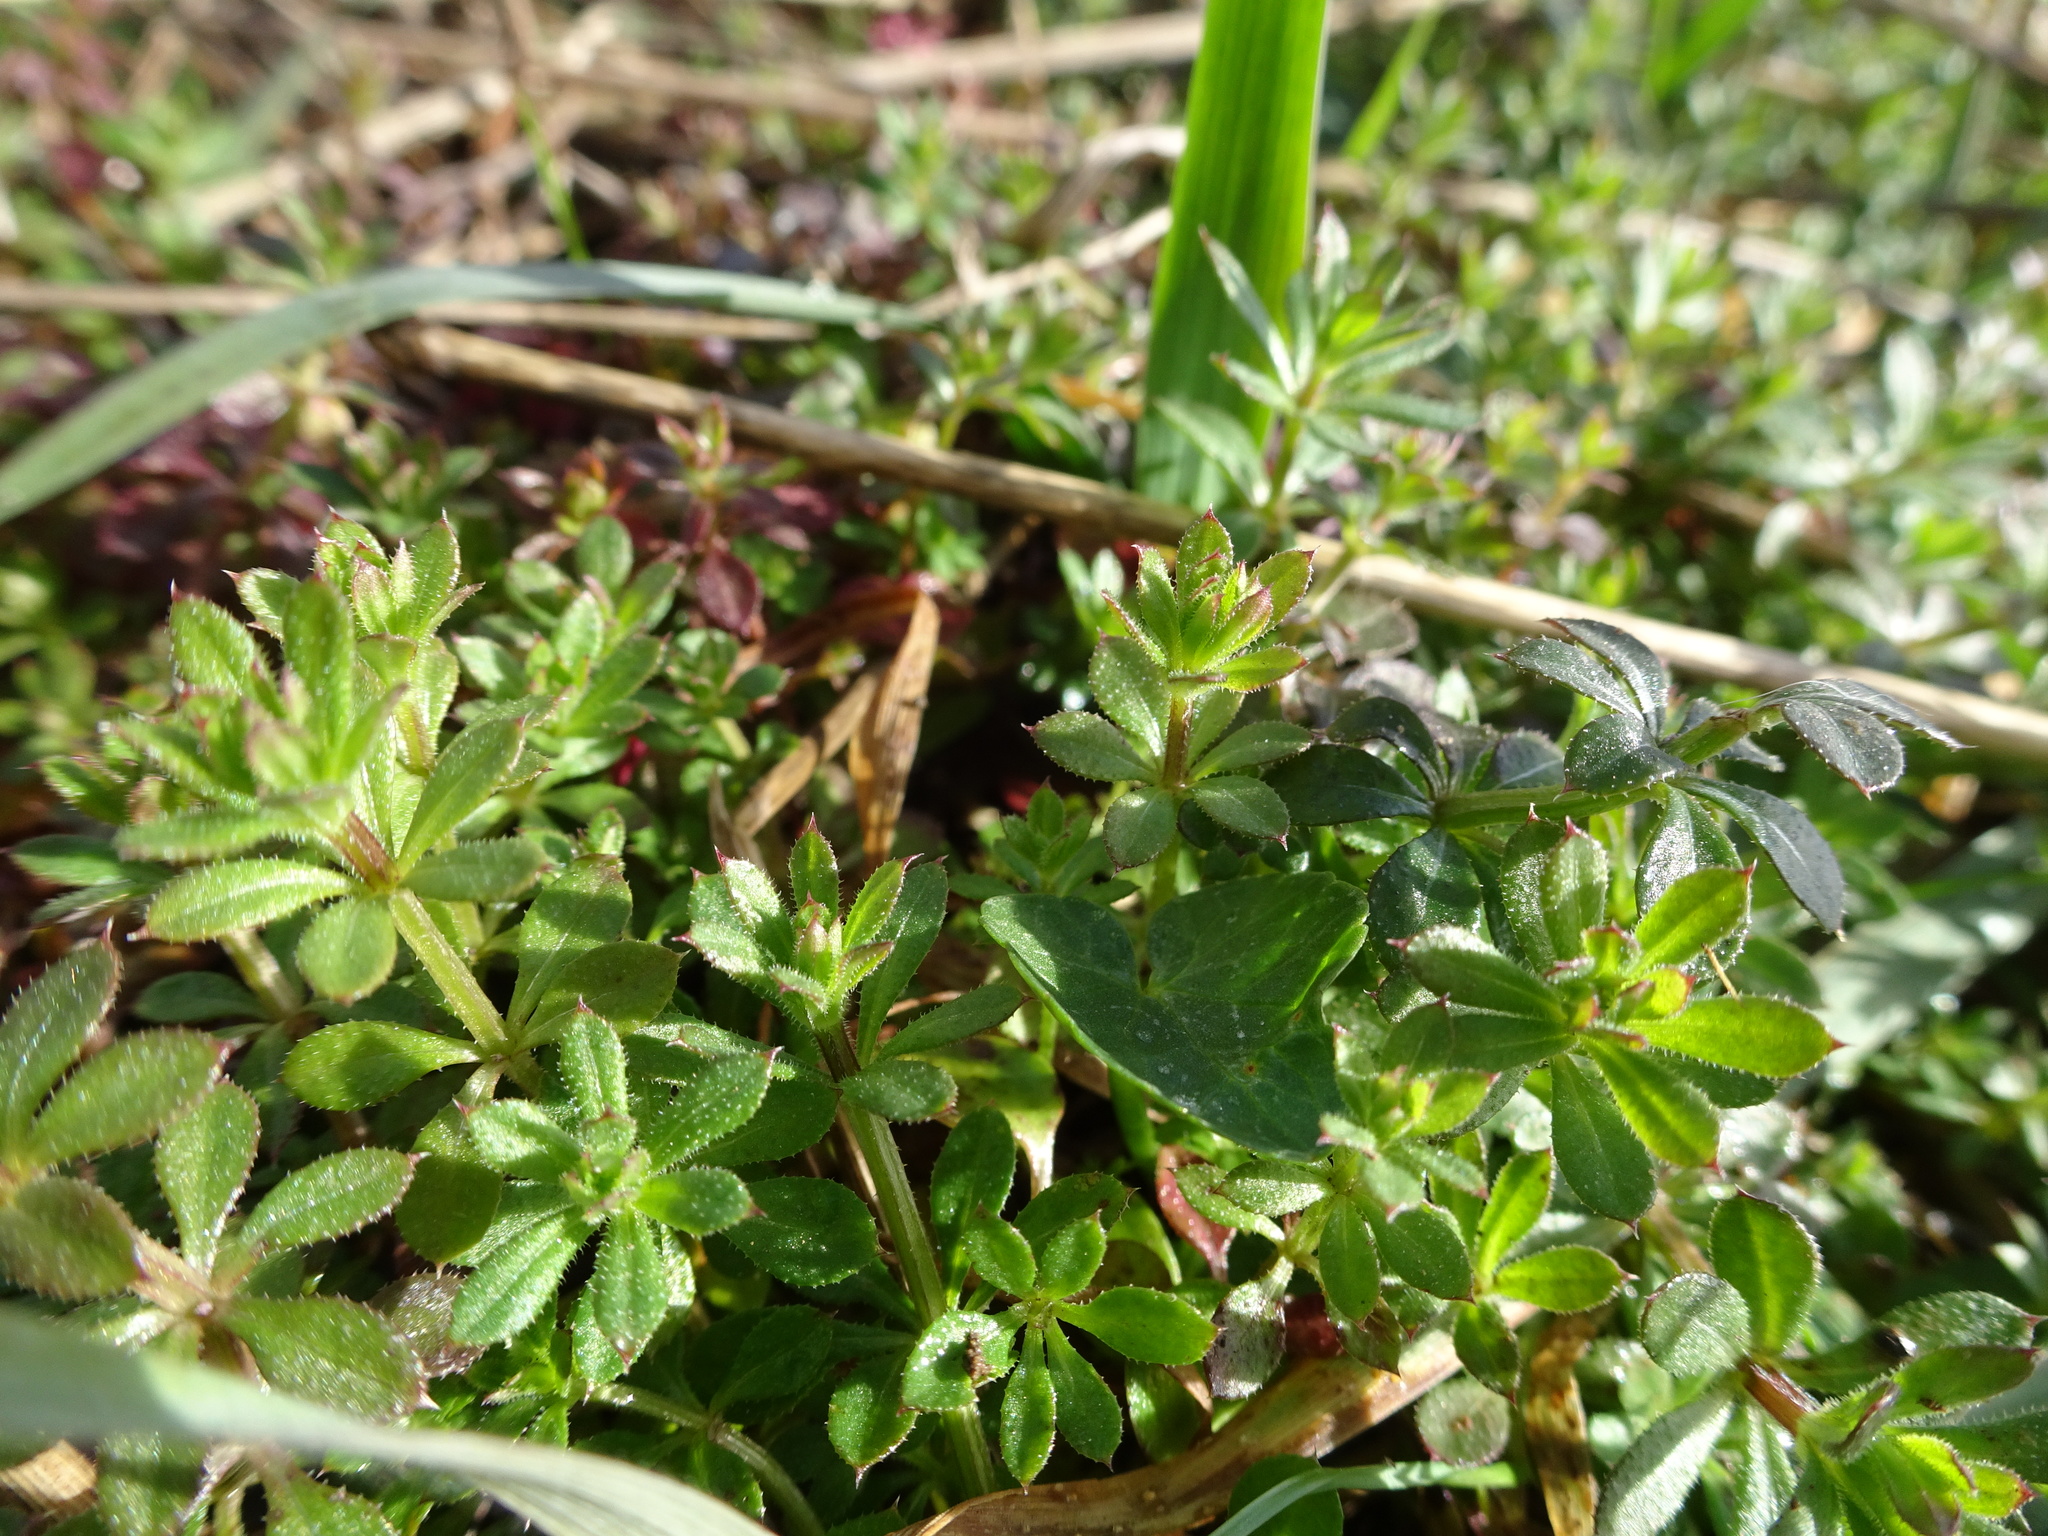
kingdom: Plantae
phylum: Tracheophyta
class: Magnoliopsida
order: Gentianales
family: Rubiaceae
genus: Galium
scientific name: Galium aparine
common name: Cleavers
